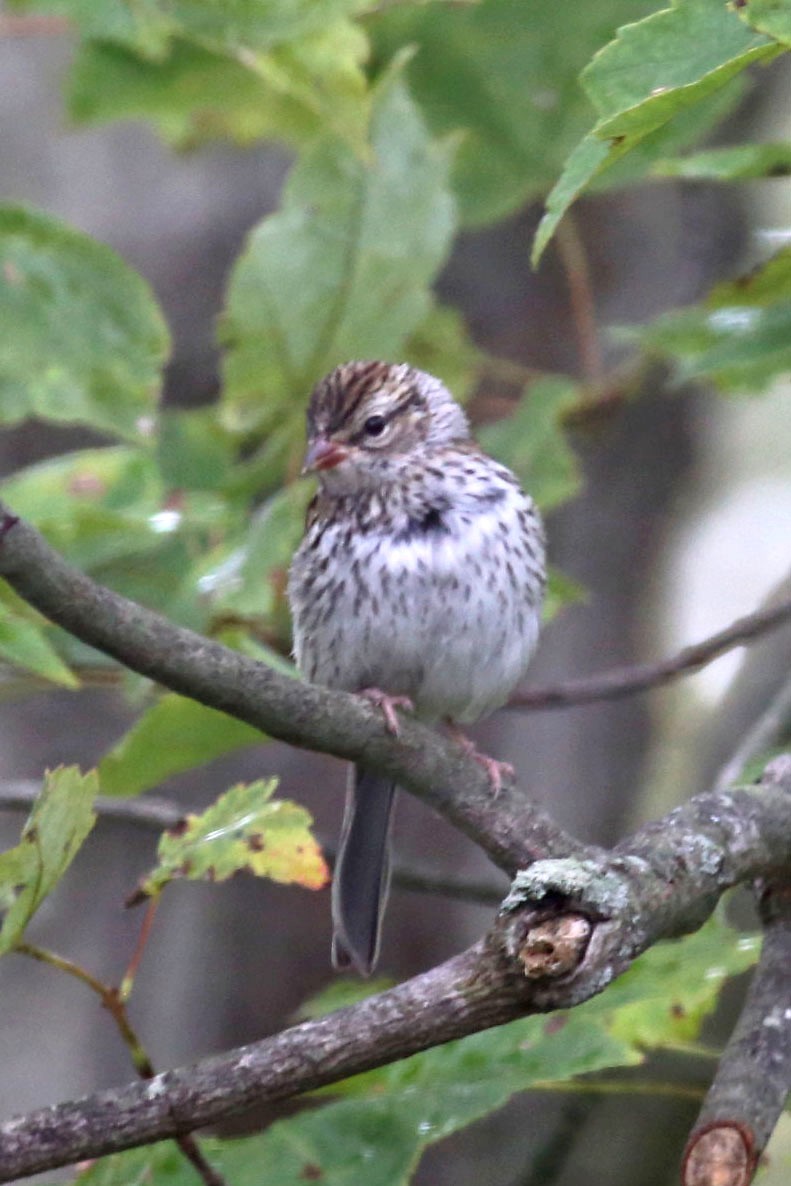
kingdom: Animalia
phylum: Chordata
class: Aves
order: Passeriformes
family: Passerellidae
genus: Spizella
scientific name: Spizella passerina
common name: Chipping sparrow
